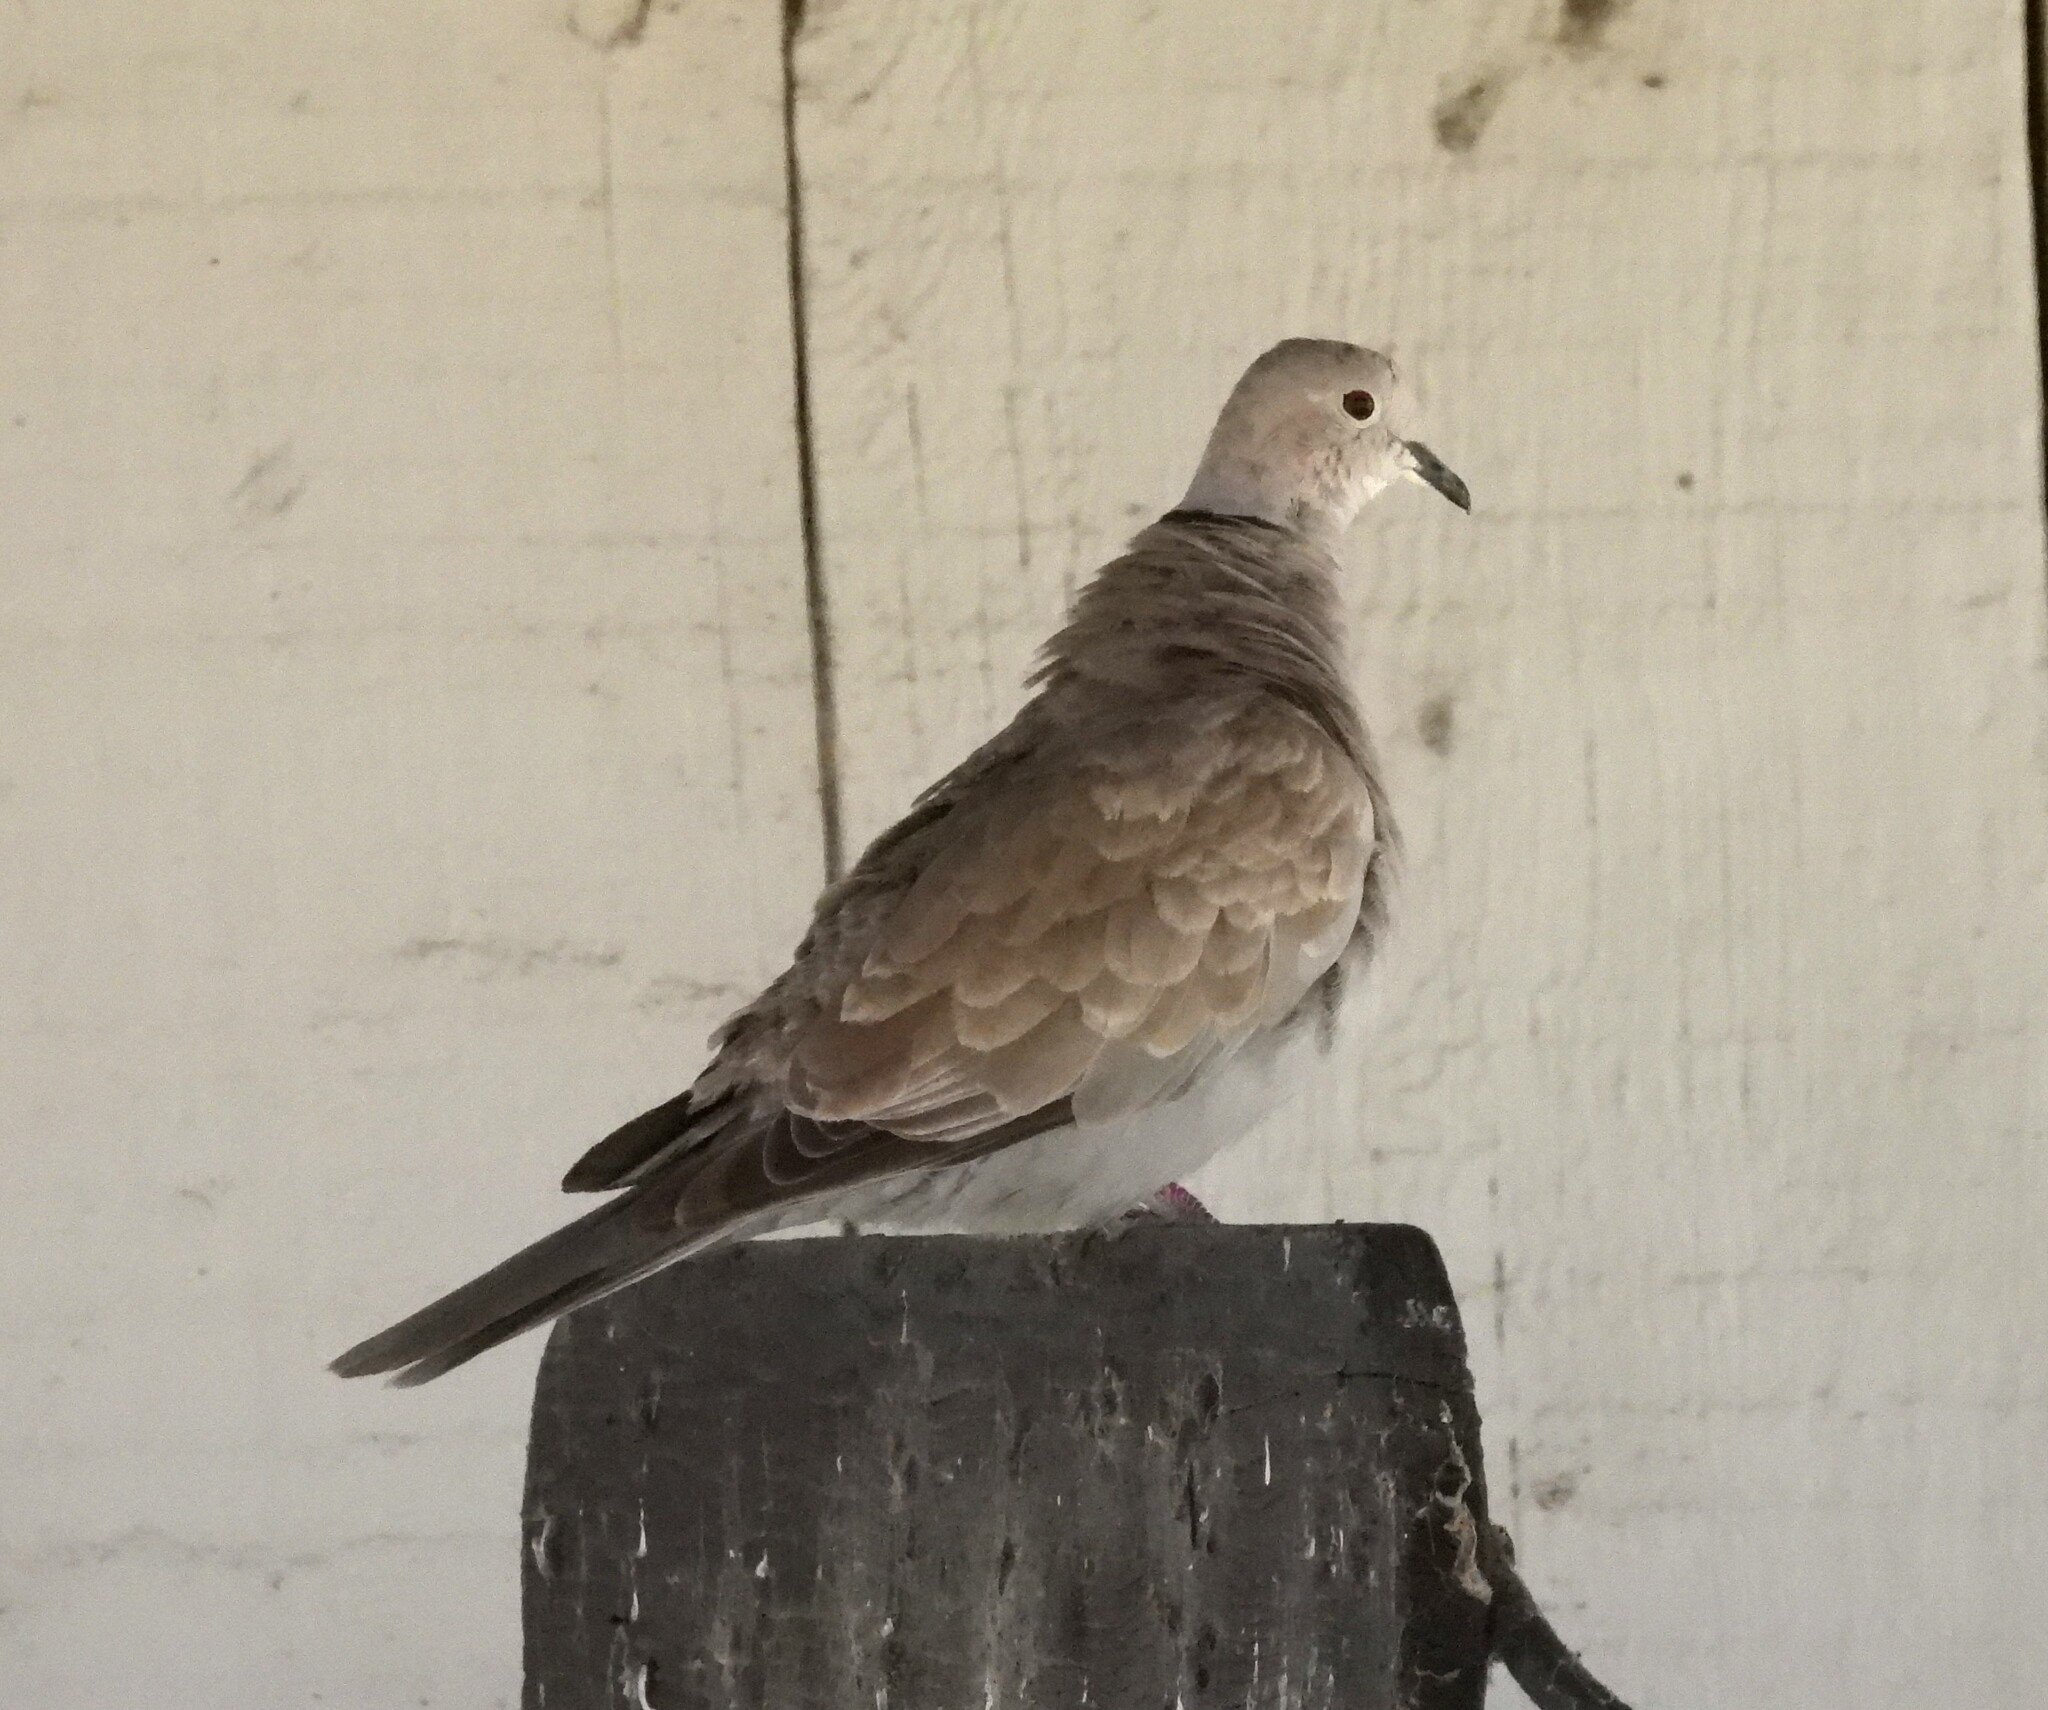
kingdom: Animalia
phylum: Chordata
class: Aves
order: Columbiformes
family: Columbidae
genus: Streptopelia
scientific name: Streptopelia decaocto
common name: Eurasian collared dove
